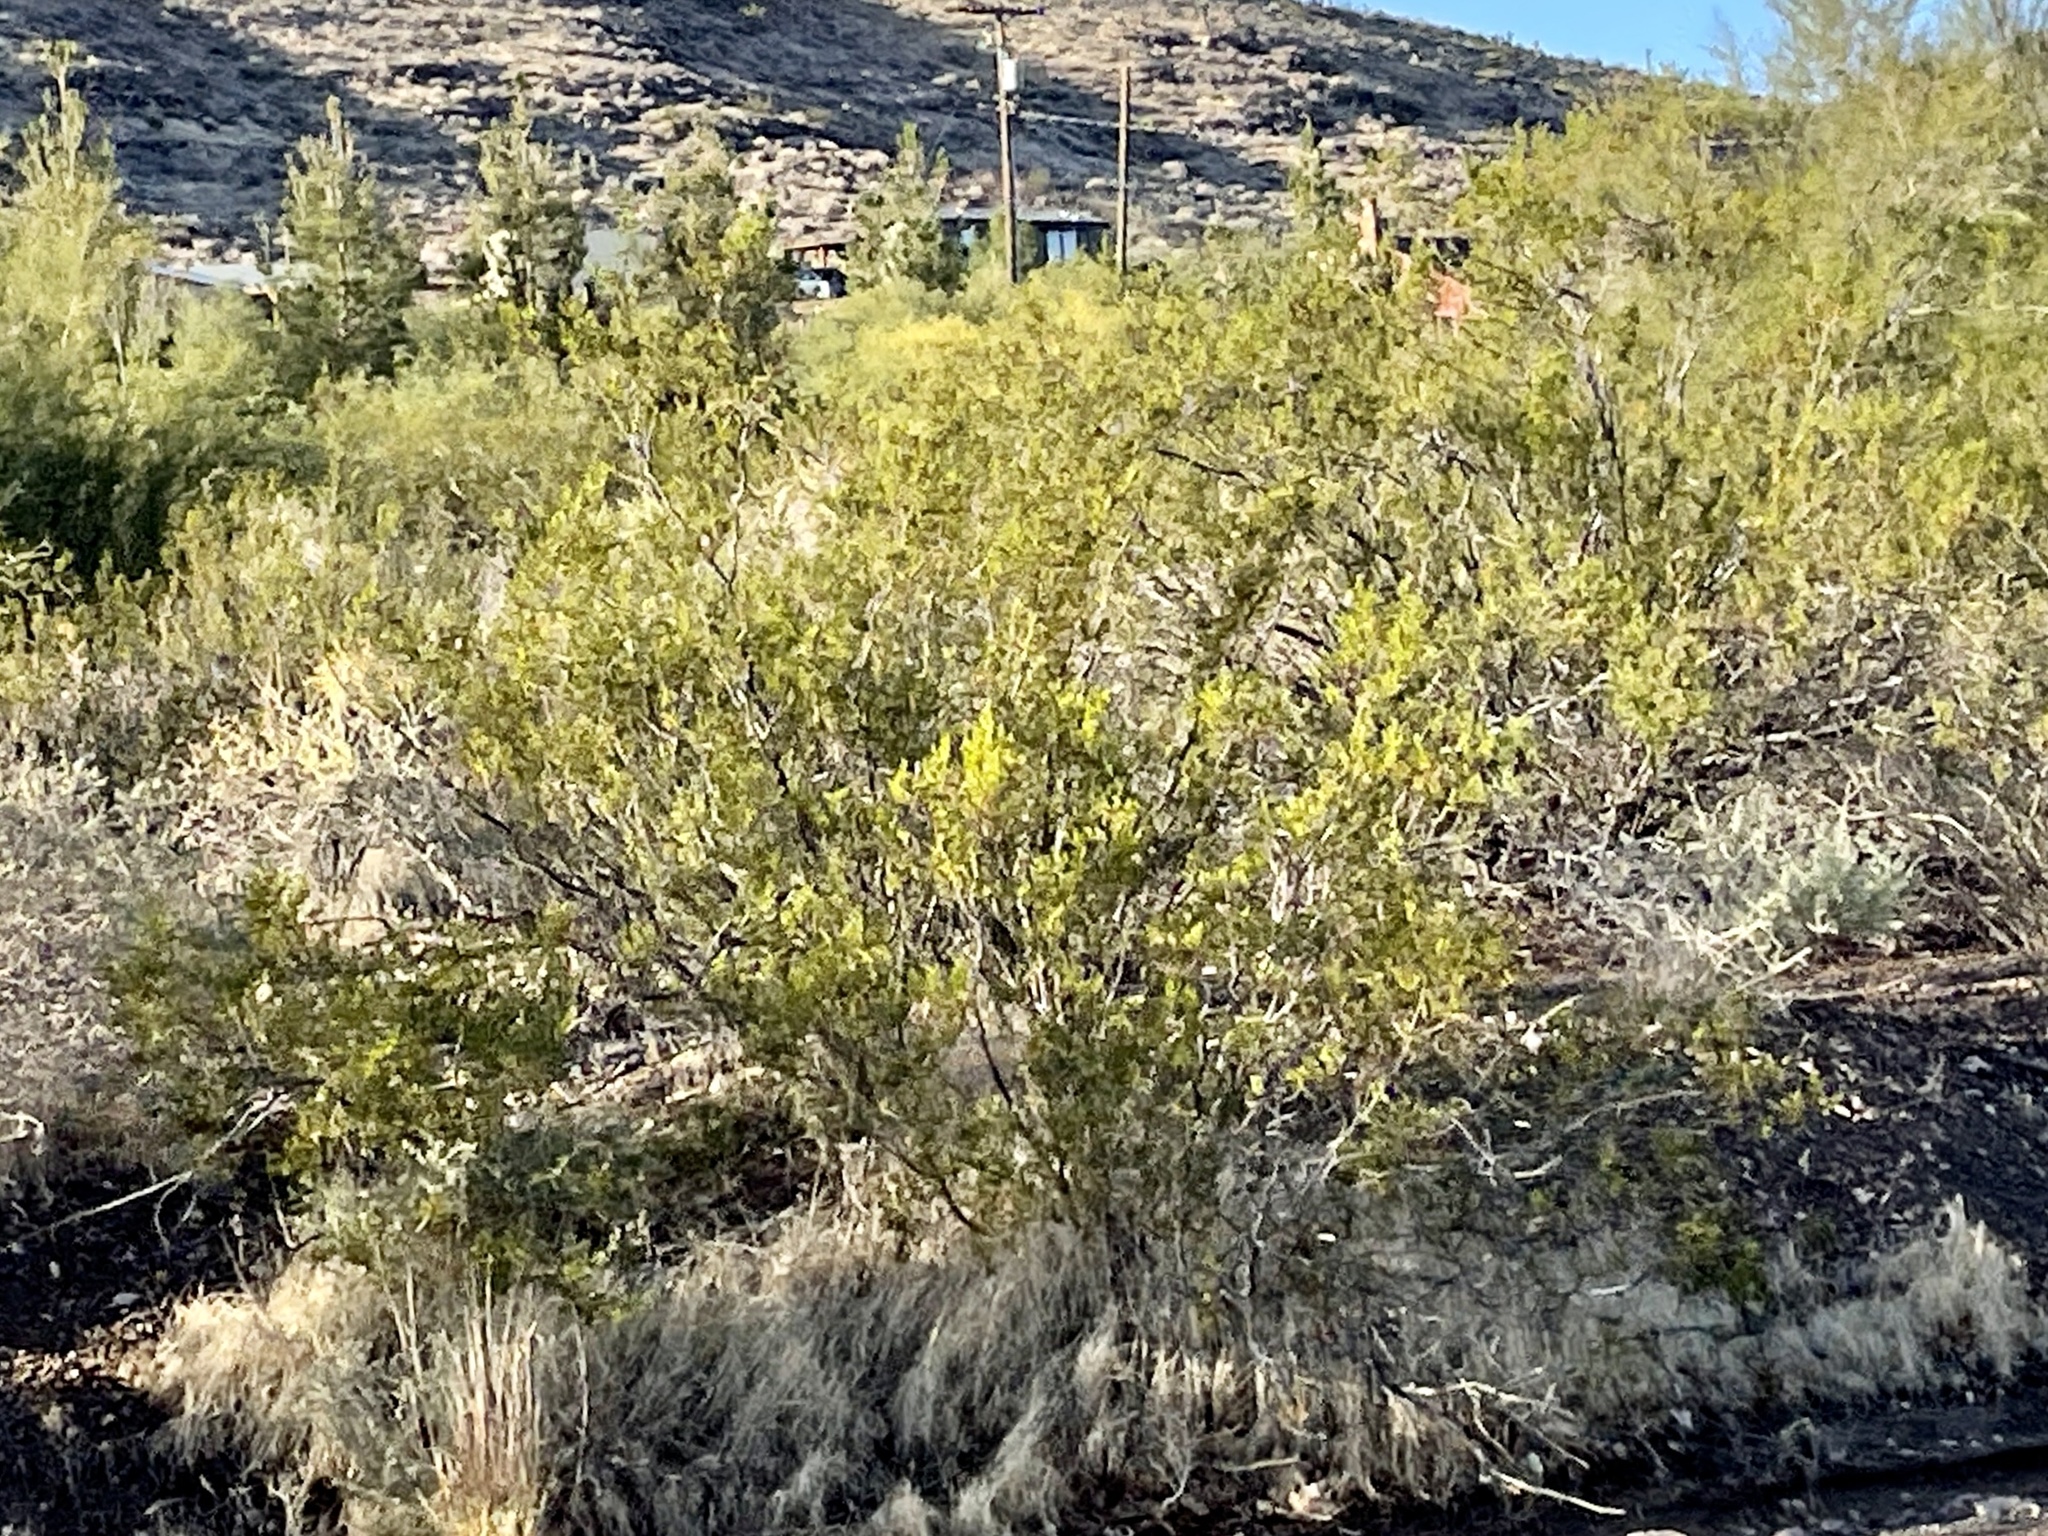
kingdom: Plantae
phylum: Tracheophyta
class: Magnoliopsida
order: Zygophyllales
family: Zygophyllaceae
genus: Larrea
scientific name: Larrea tridentata
